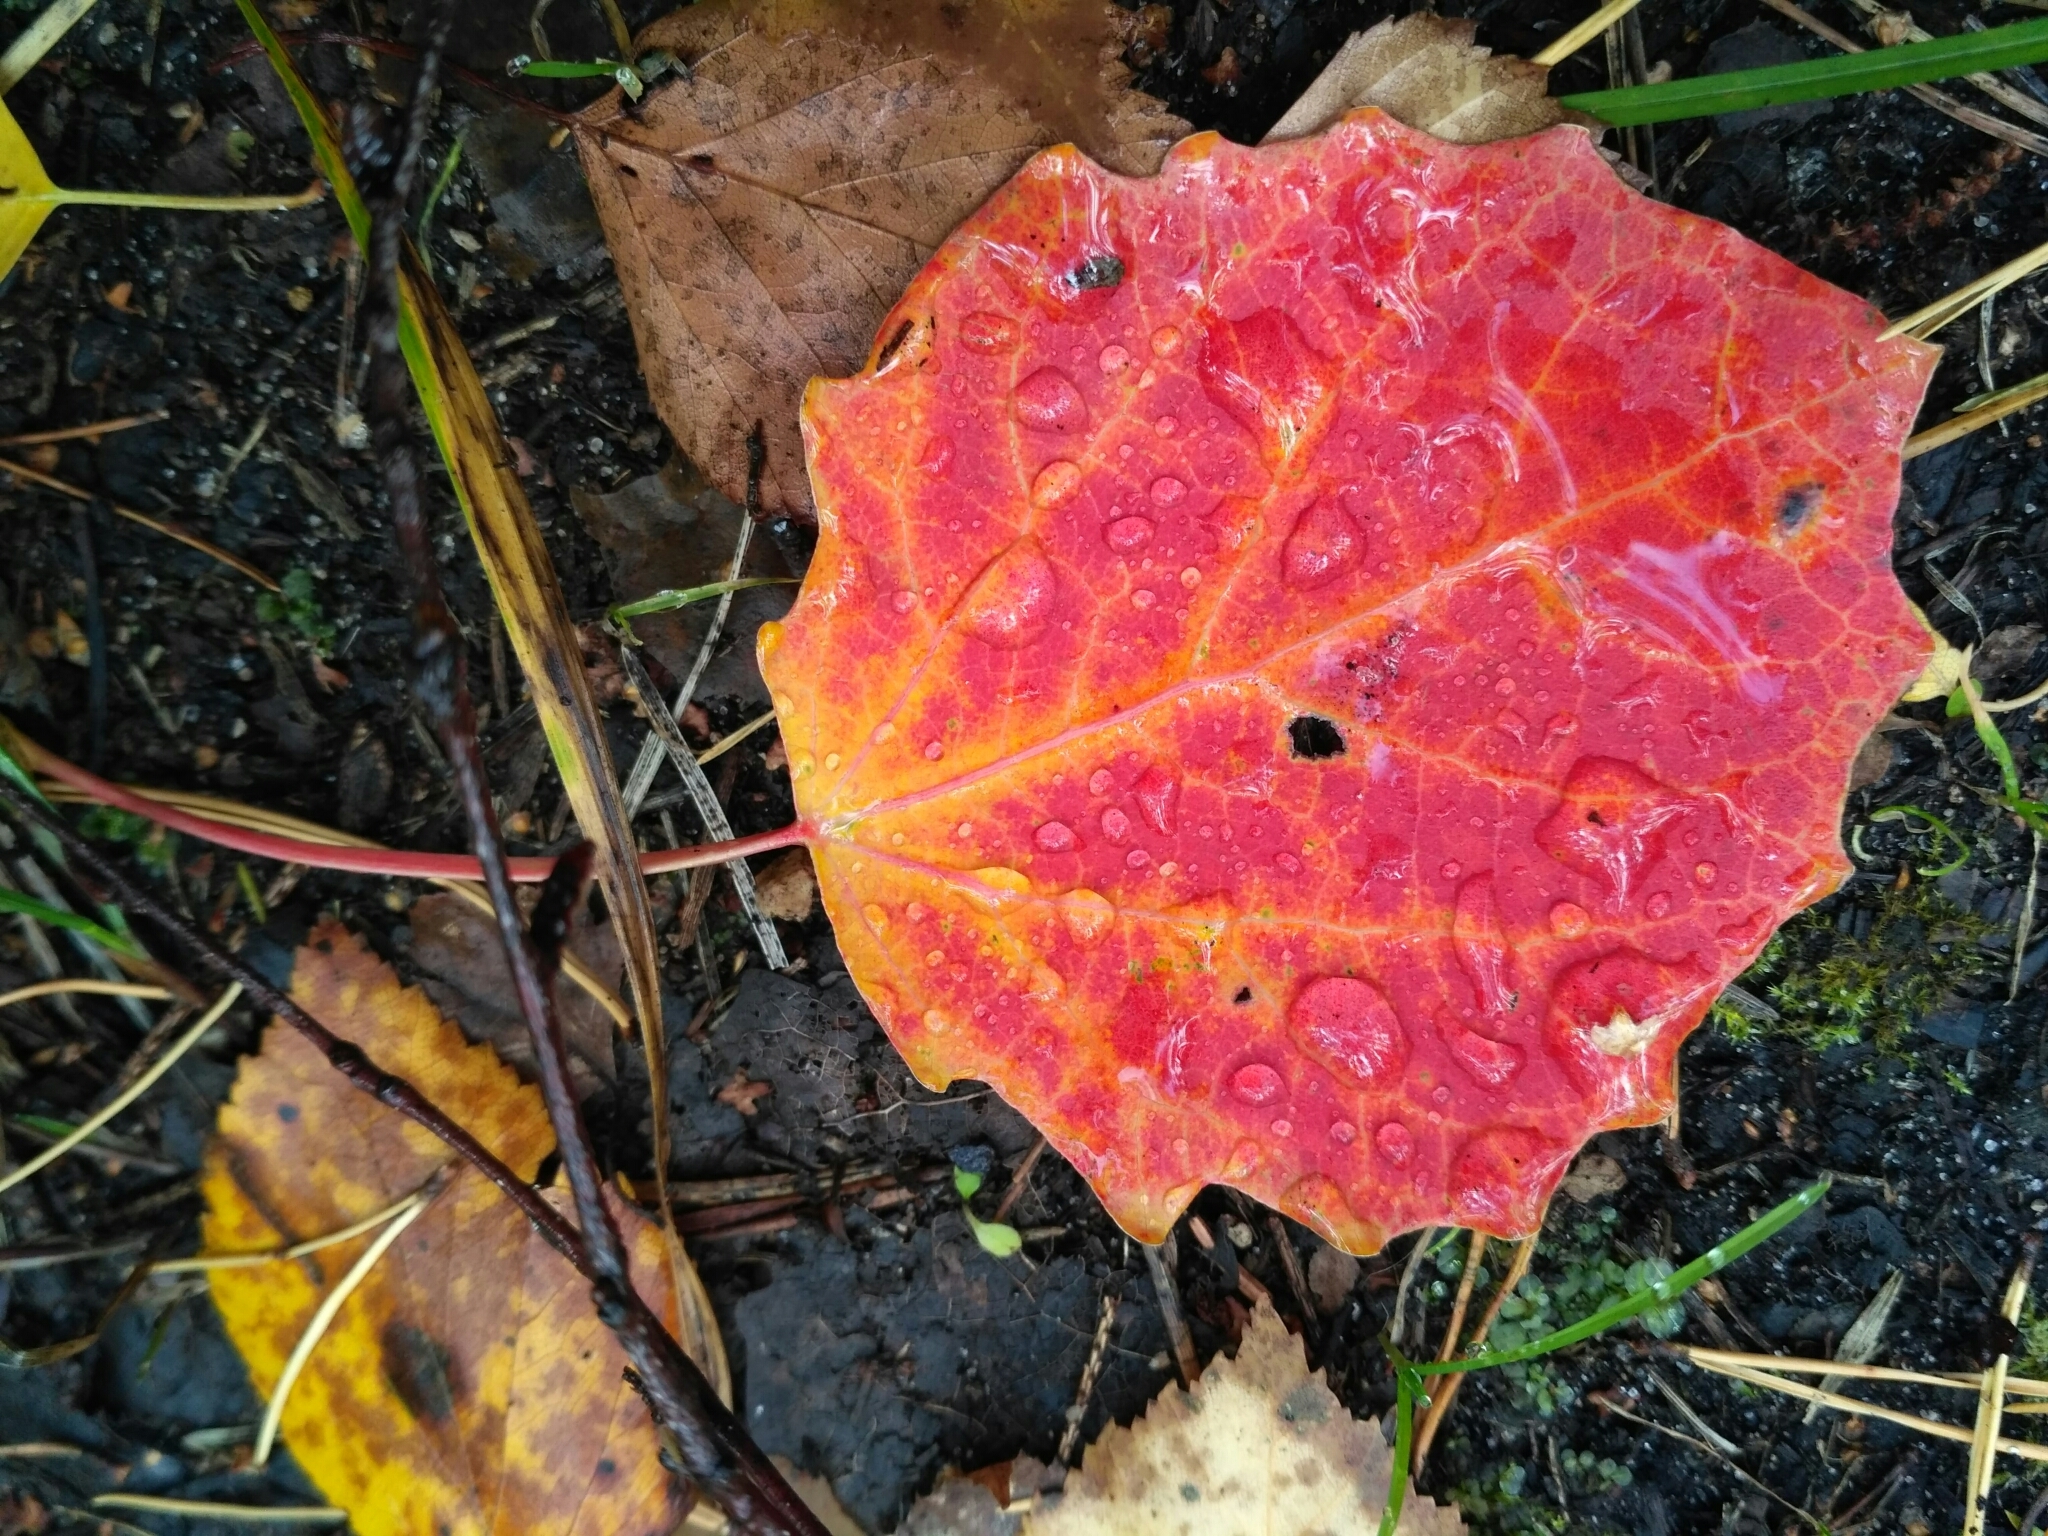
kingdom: Plantae
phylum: Tracheophyta
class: Magnoliopsida
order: Malpighiales
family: Salicaceae
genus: Populus
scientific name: Populus tremula
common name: European aspen
